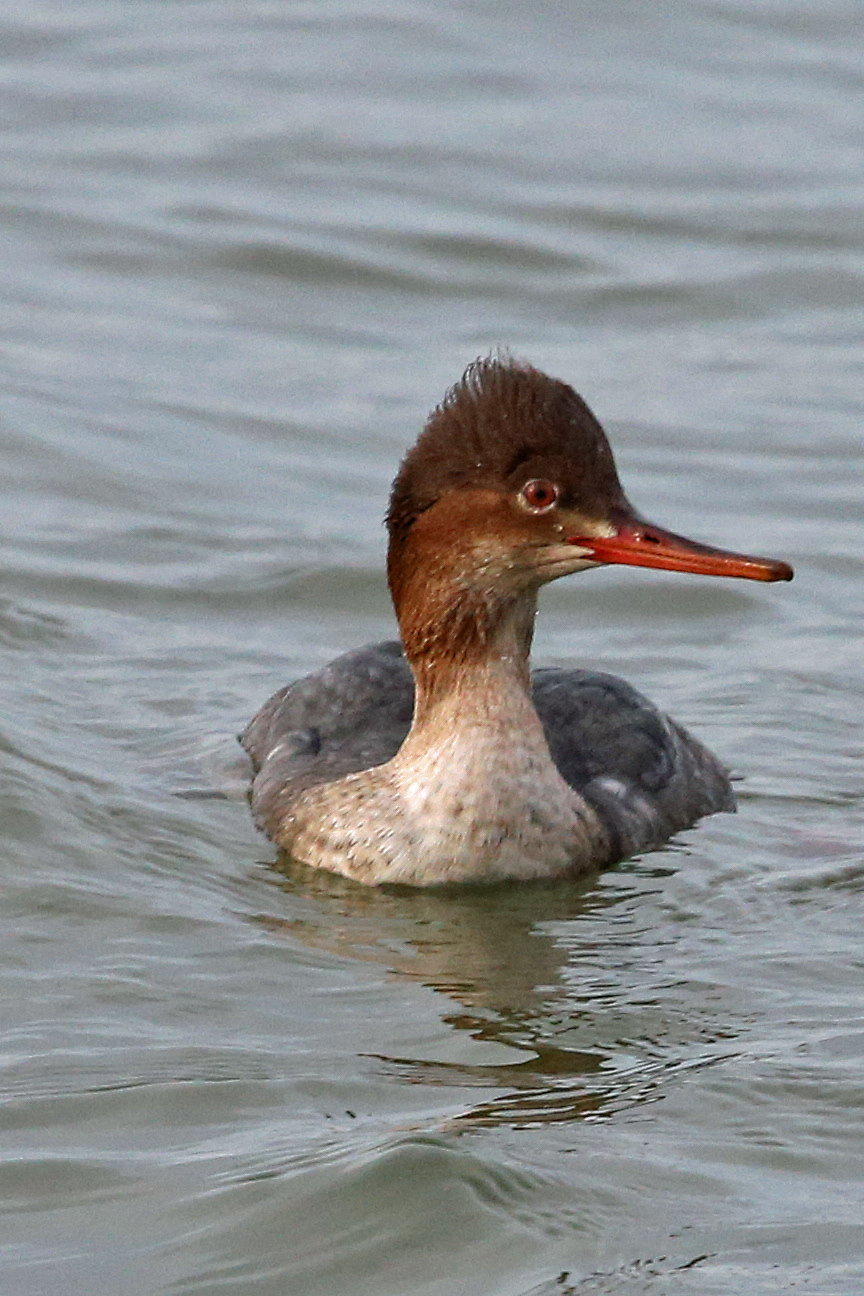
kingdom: Animalia
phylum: Chordata
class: Aves
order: Anseriformes
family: Anatidae
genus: Mergus
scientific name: Mergus serrator
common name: Red-breasted merganser
